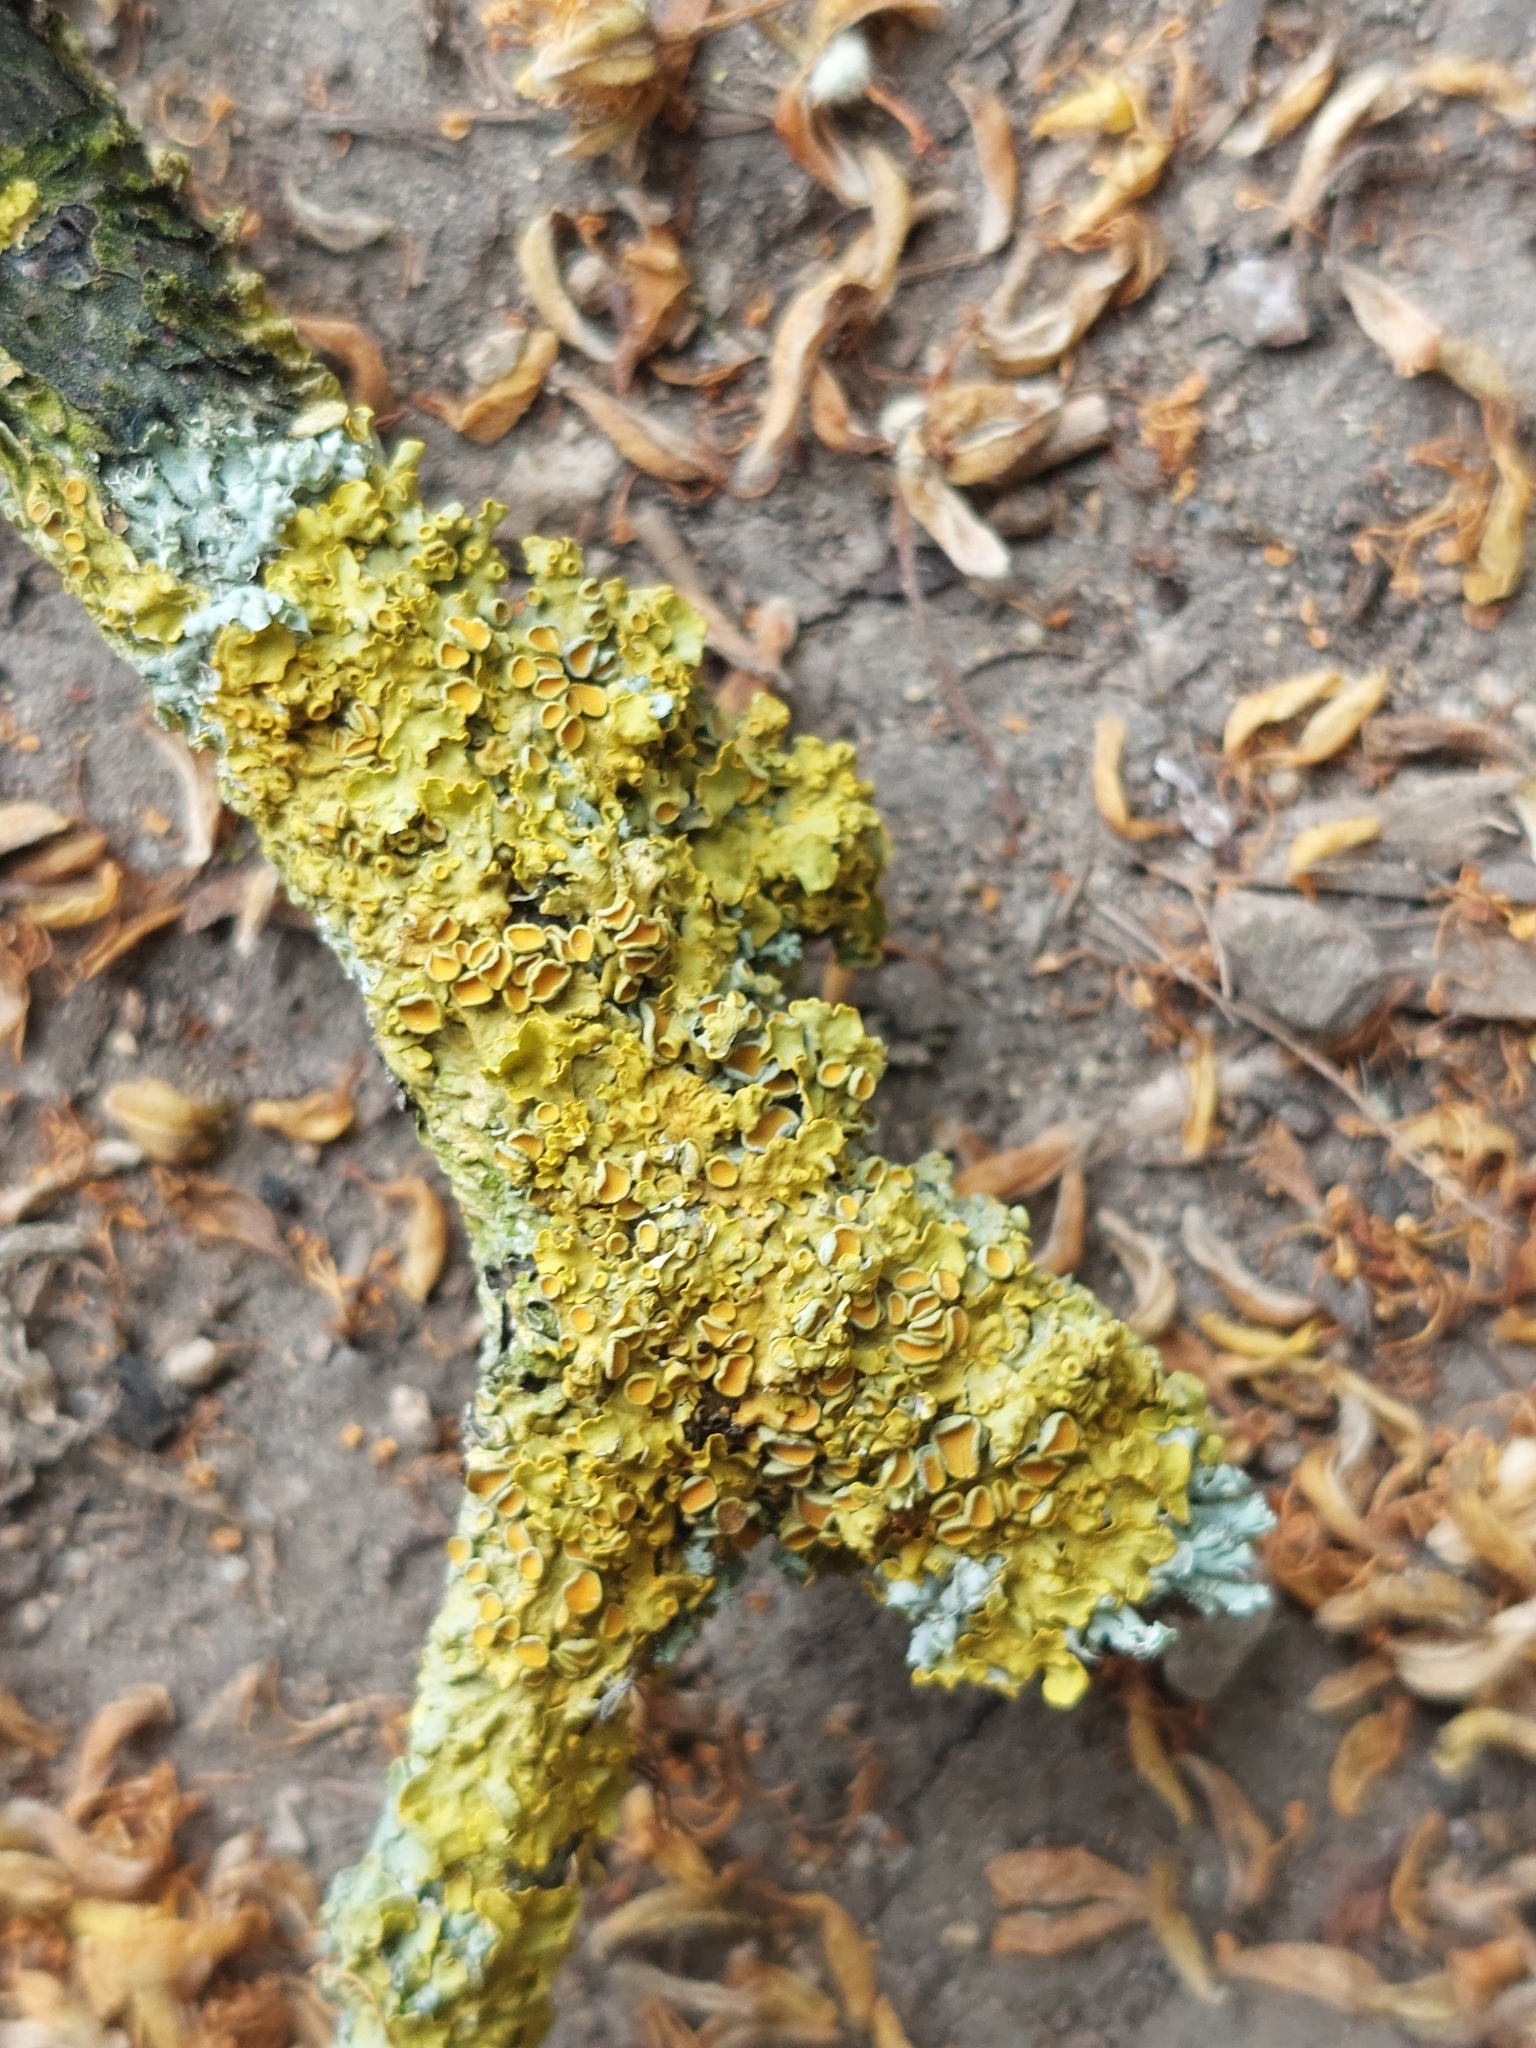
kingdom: Fungi
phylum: Ascomycota
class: Lecanoromycetes
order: Teloschistales
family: Teloschistaceae
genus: Xanthoria
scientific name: Xanthoria parietina
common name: Common orange lichen
